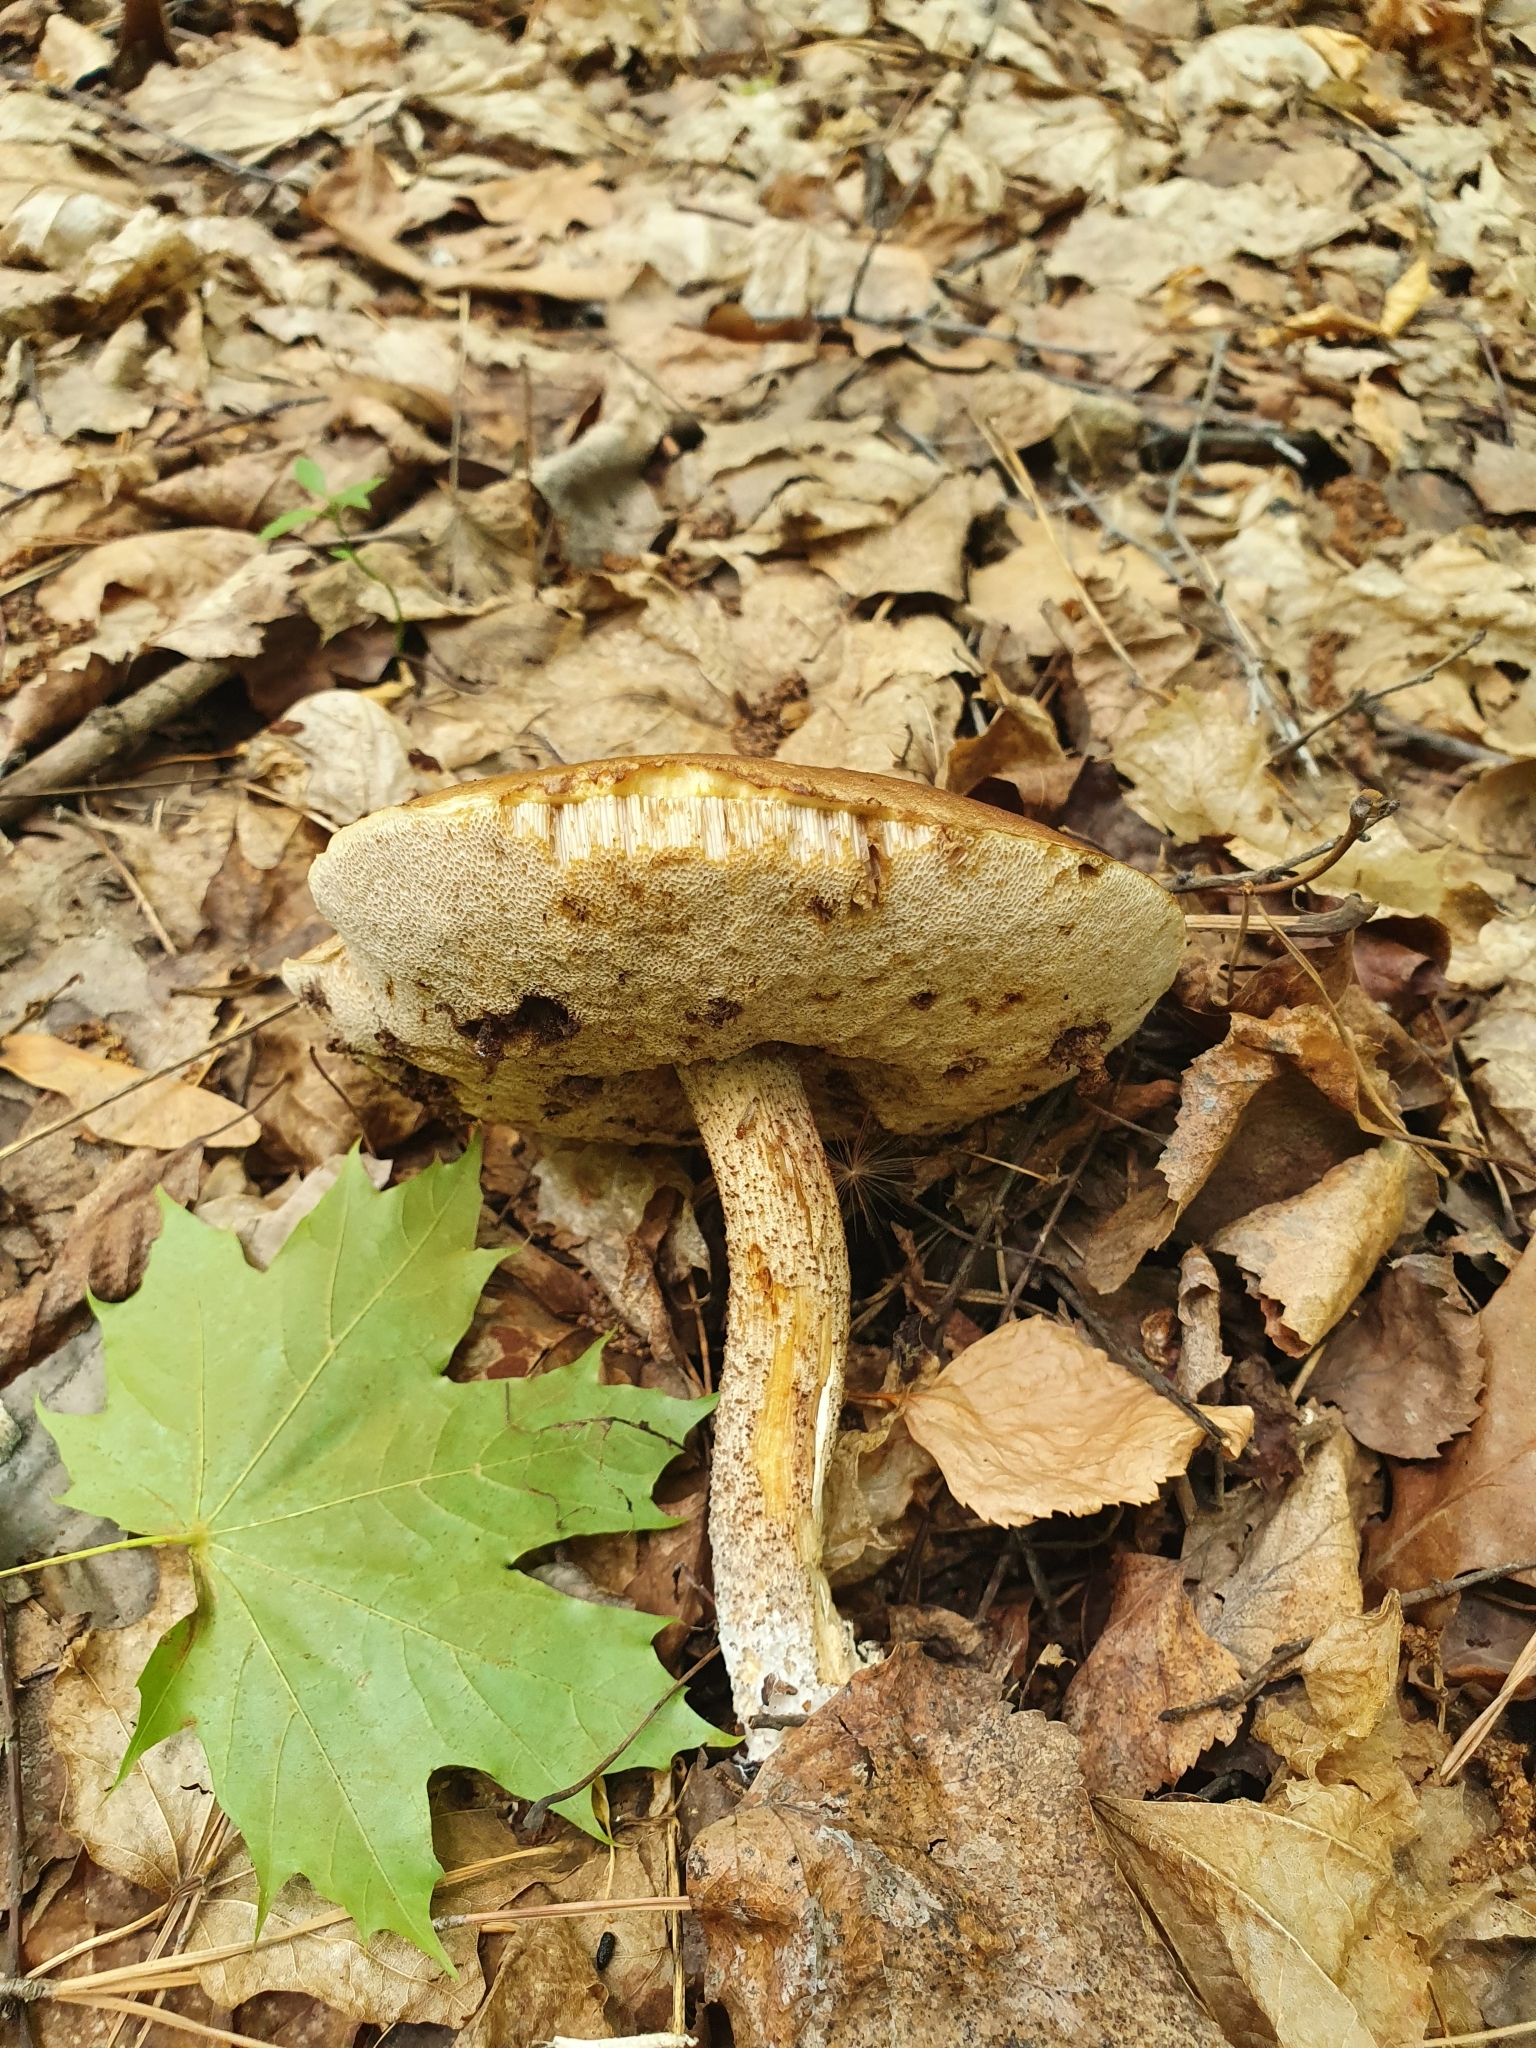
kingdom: Fungi
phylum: Basidiomycota
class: Agaricomycetes
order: Boletales
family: Boletaceae
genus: Leccinum
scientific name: Leccinum scabrum
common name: Blushing bolete
